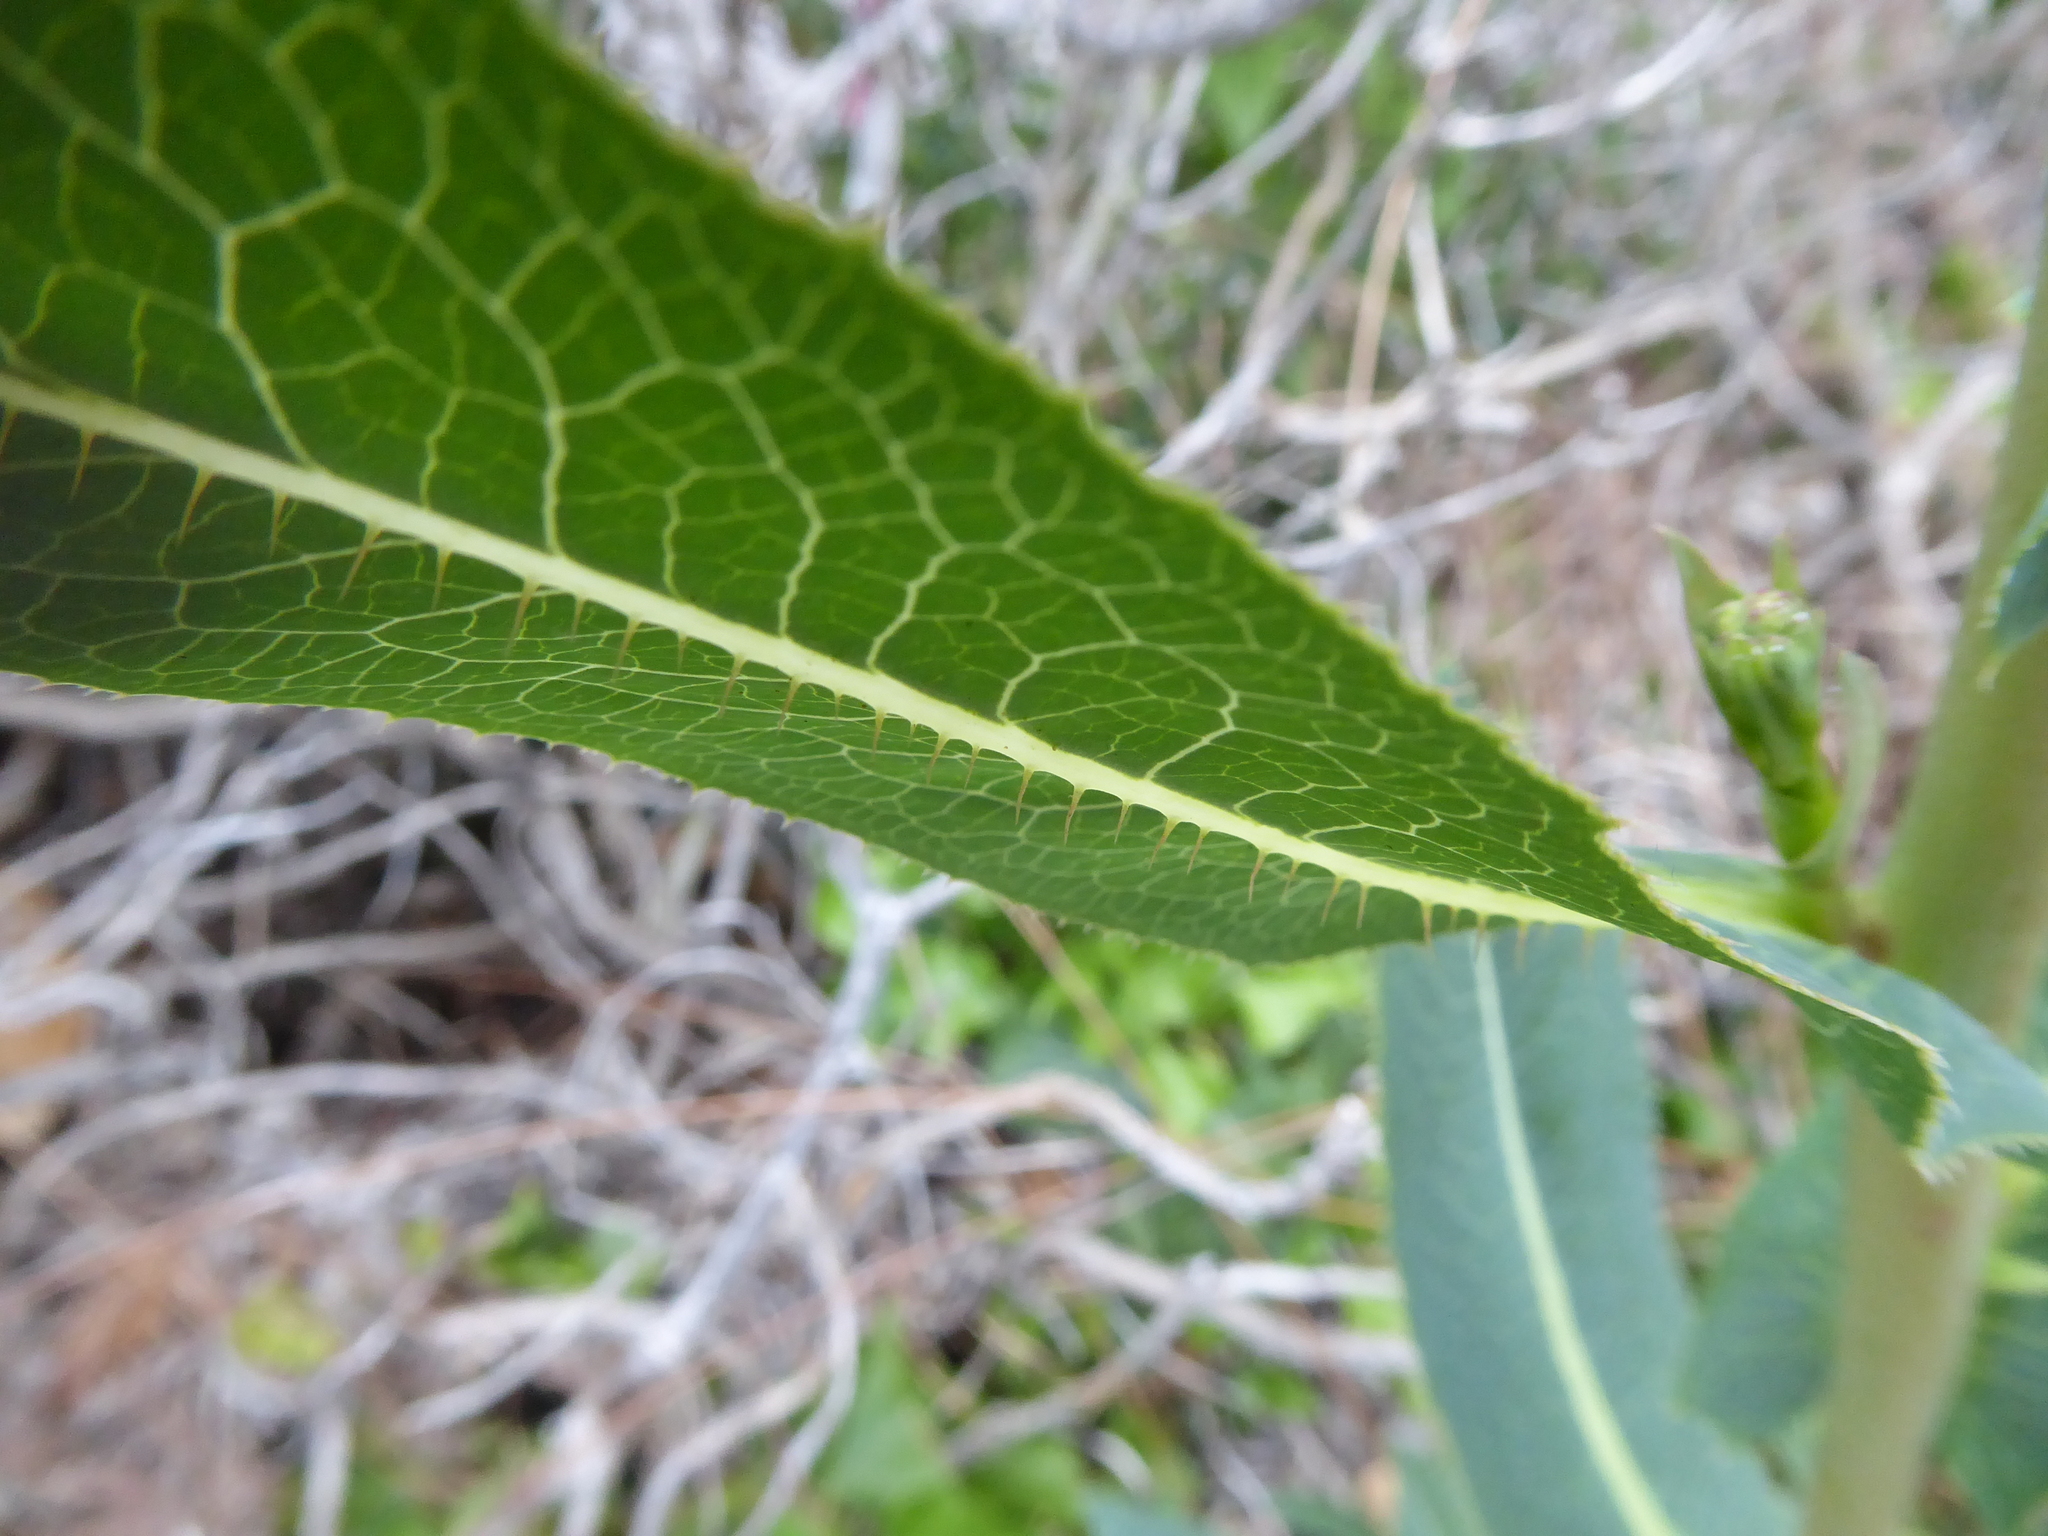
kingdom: Plantae
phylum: Tracheophyta
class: Magnoliopsida
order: Asterales
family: Asteraceae
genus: Lactuca
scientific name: Lactuca serriola
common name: Prickly lettuce
